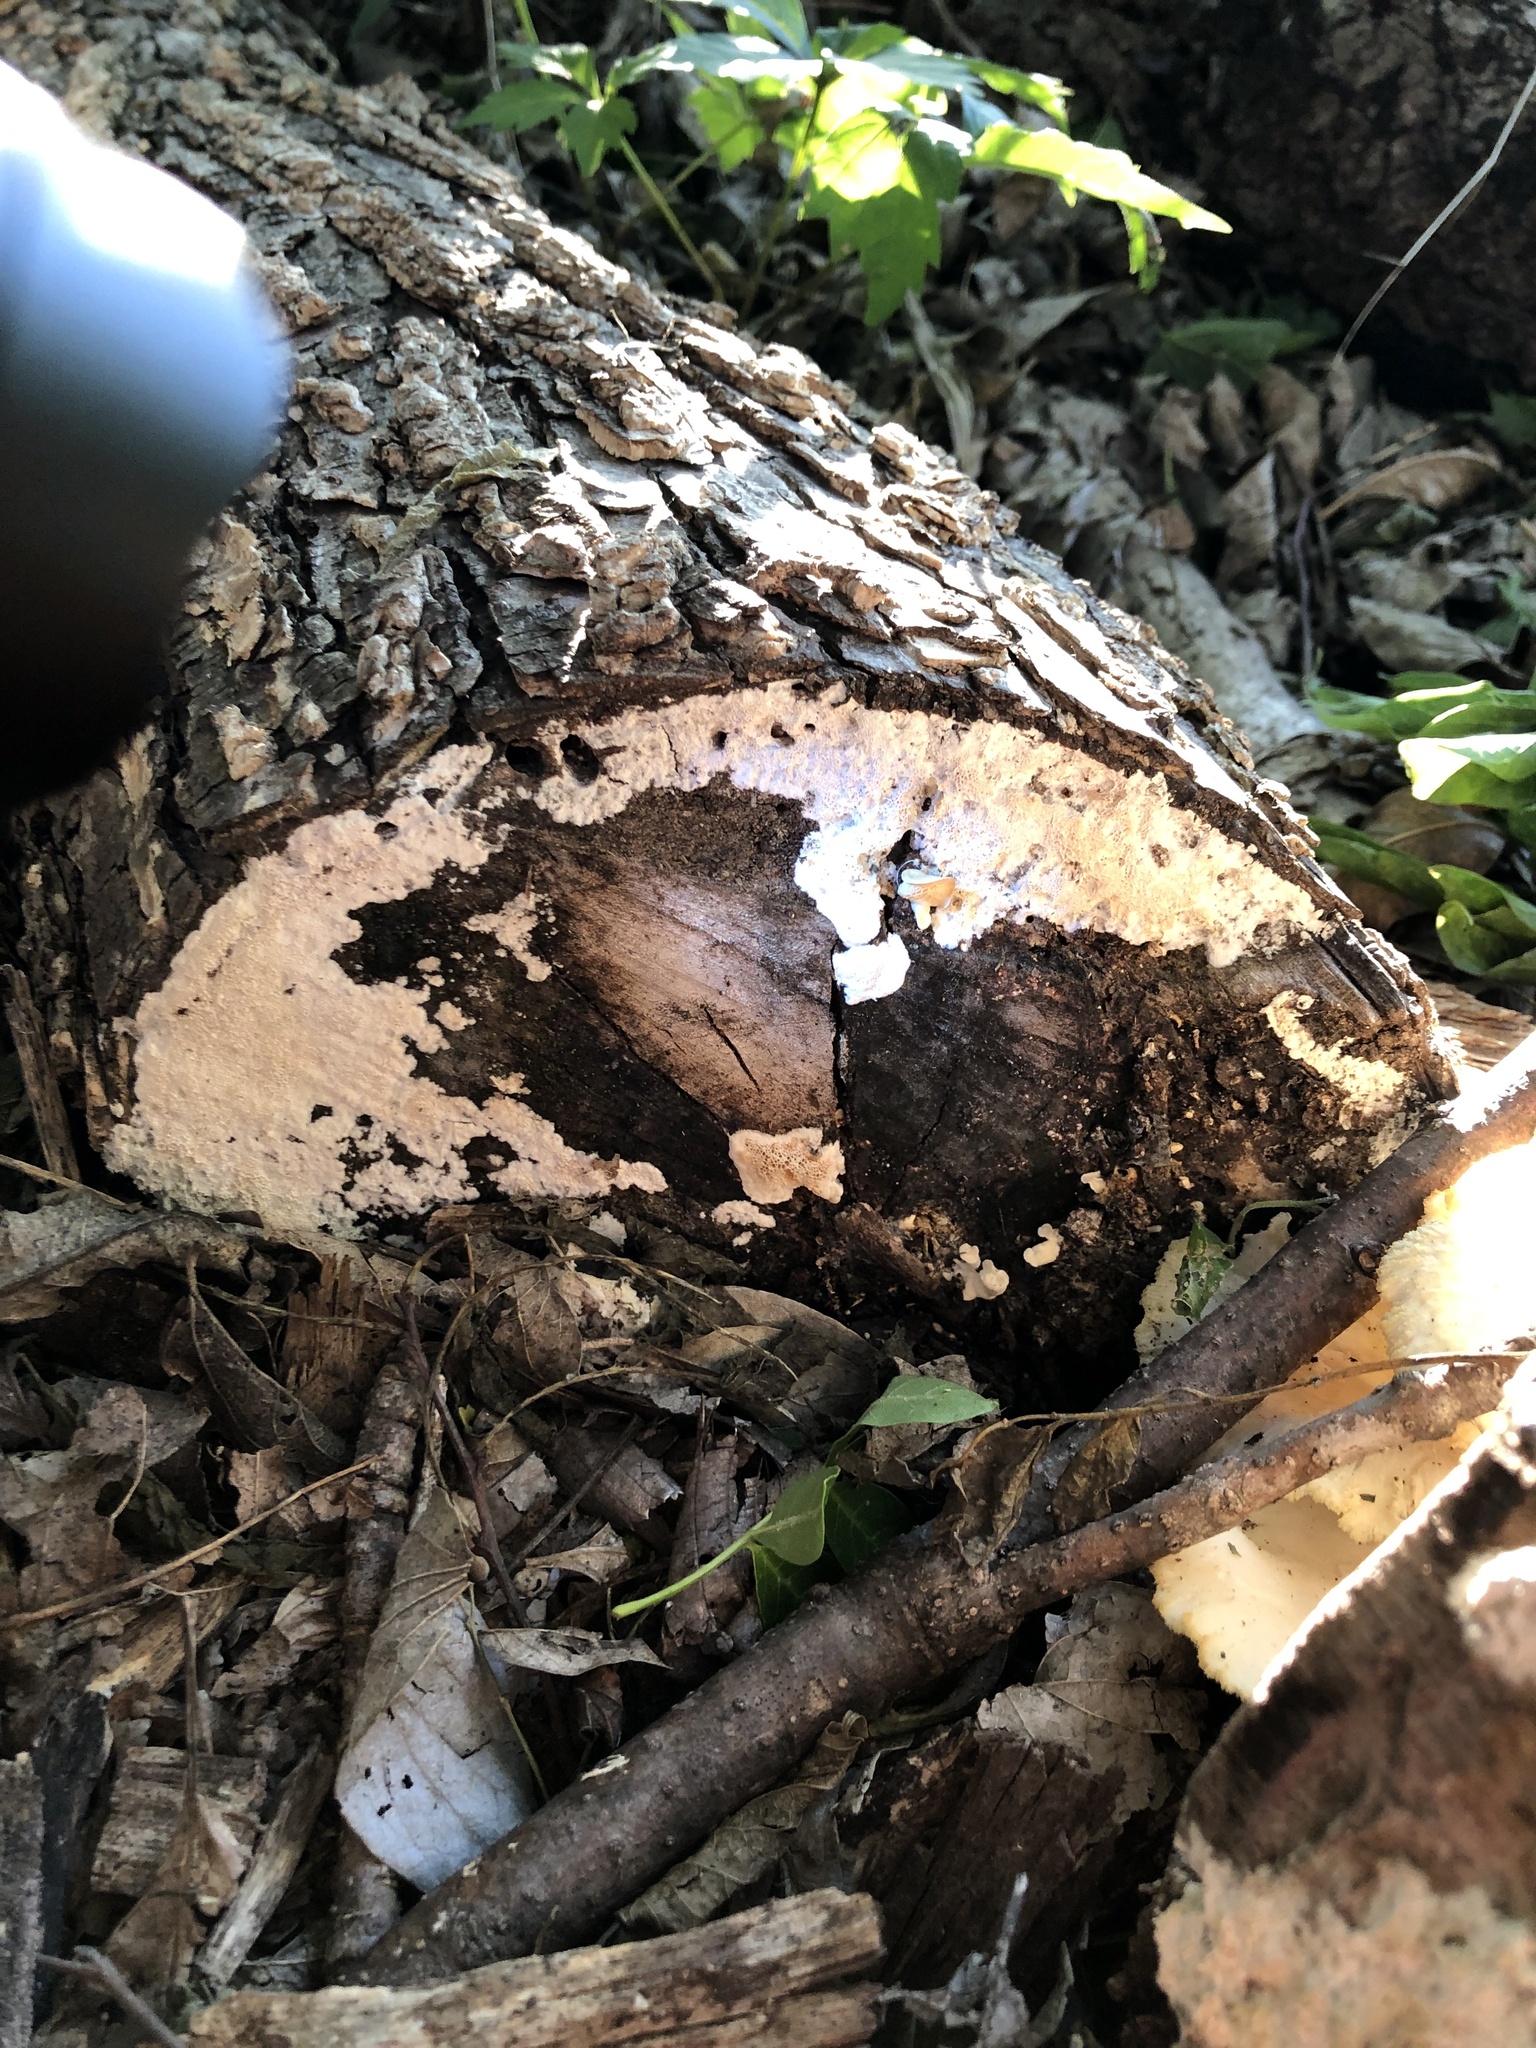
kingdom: Fungi
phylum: Basidiomycota
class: Agaricomycetes
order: Polyporales
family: Polyporaceae
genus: Favolus
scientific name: Favolus tenuiculus
